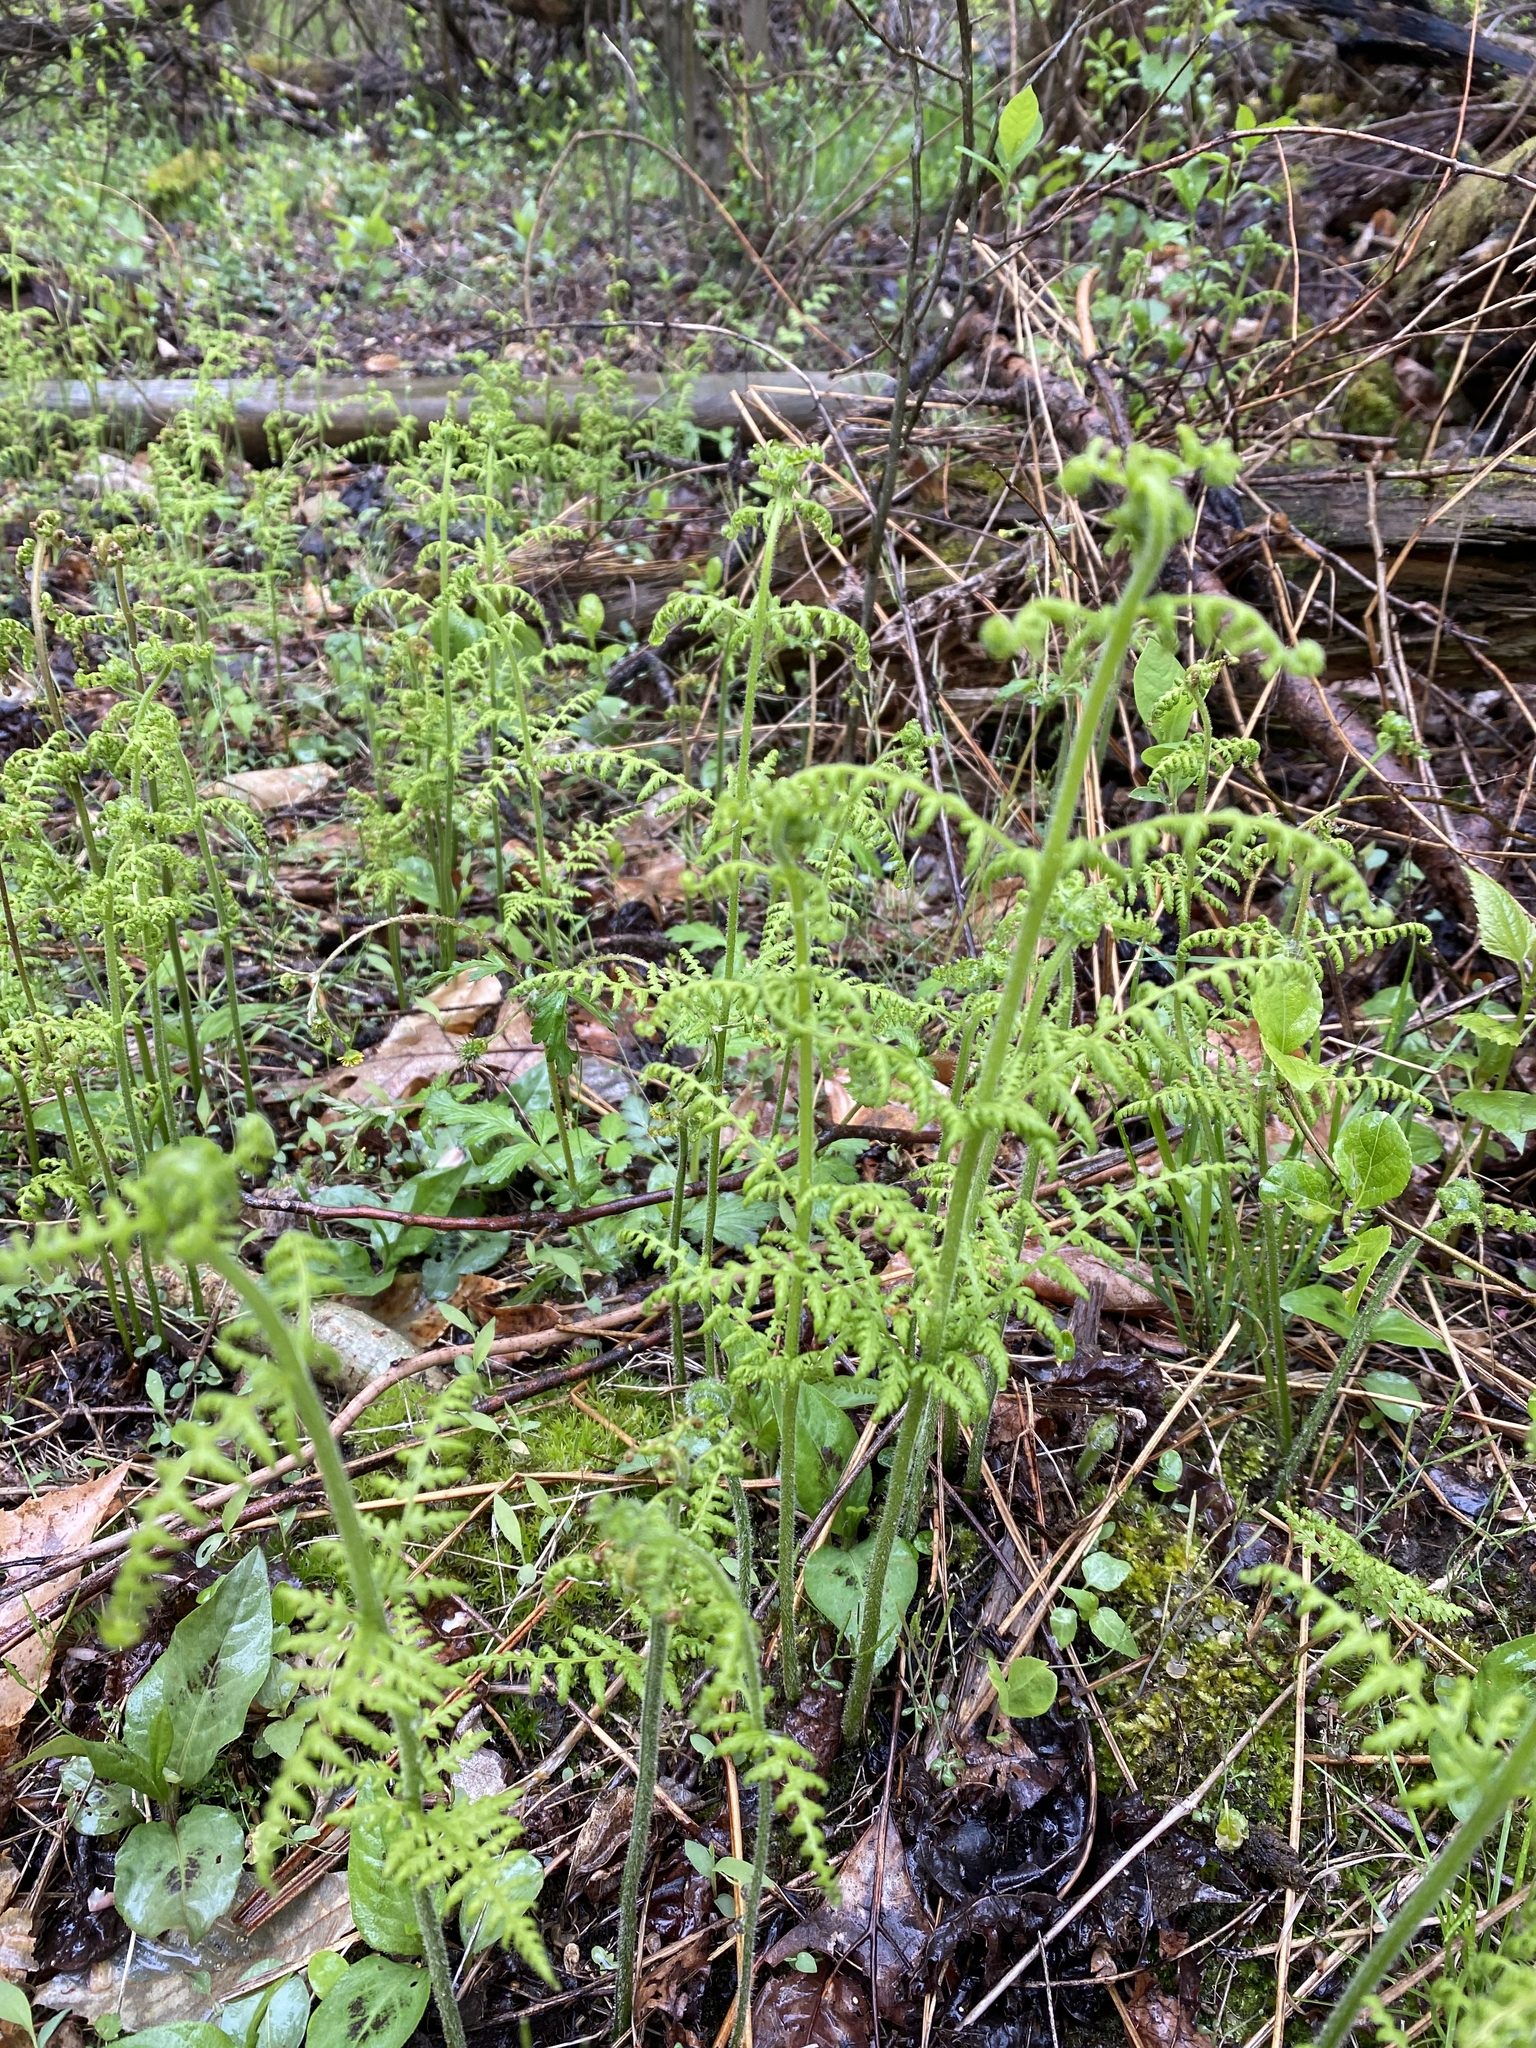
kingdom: Plantae
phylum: Tracheophyta
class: Polypodiopsida
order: Polypodiales
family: Dennstaedtiaceae
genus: Sitobolium
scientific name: Sitobolium punctilobum
